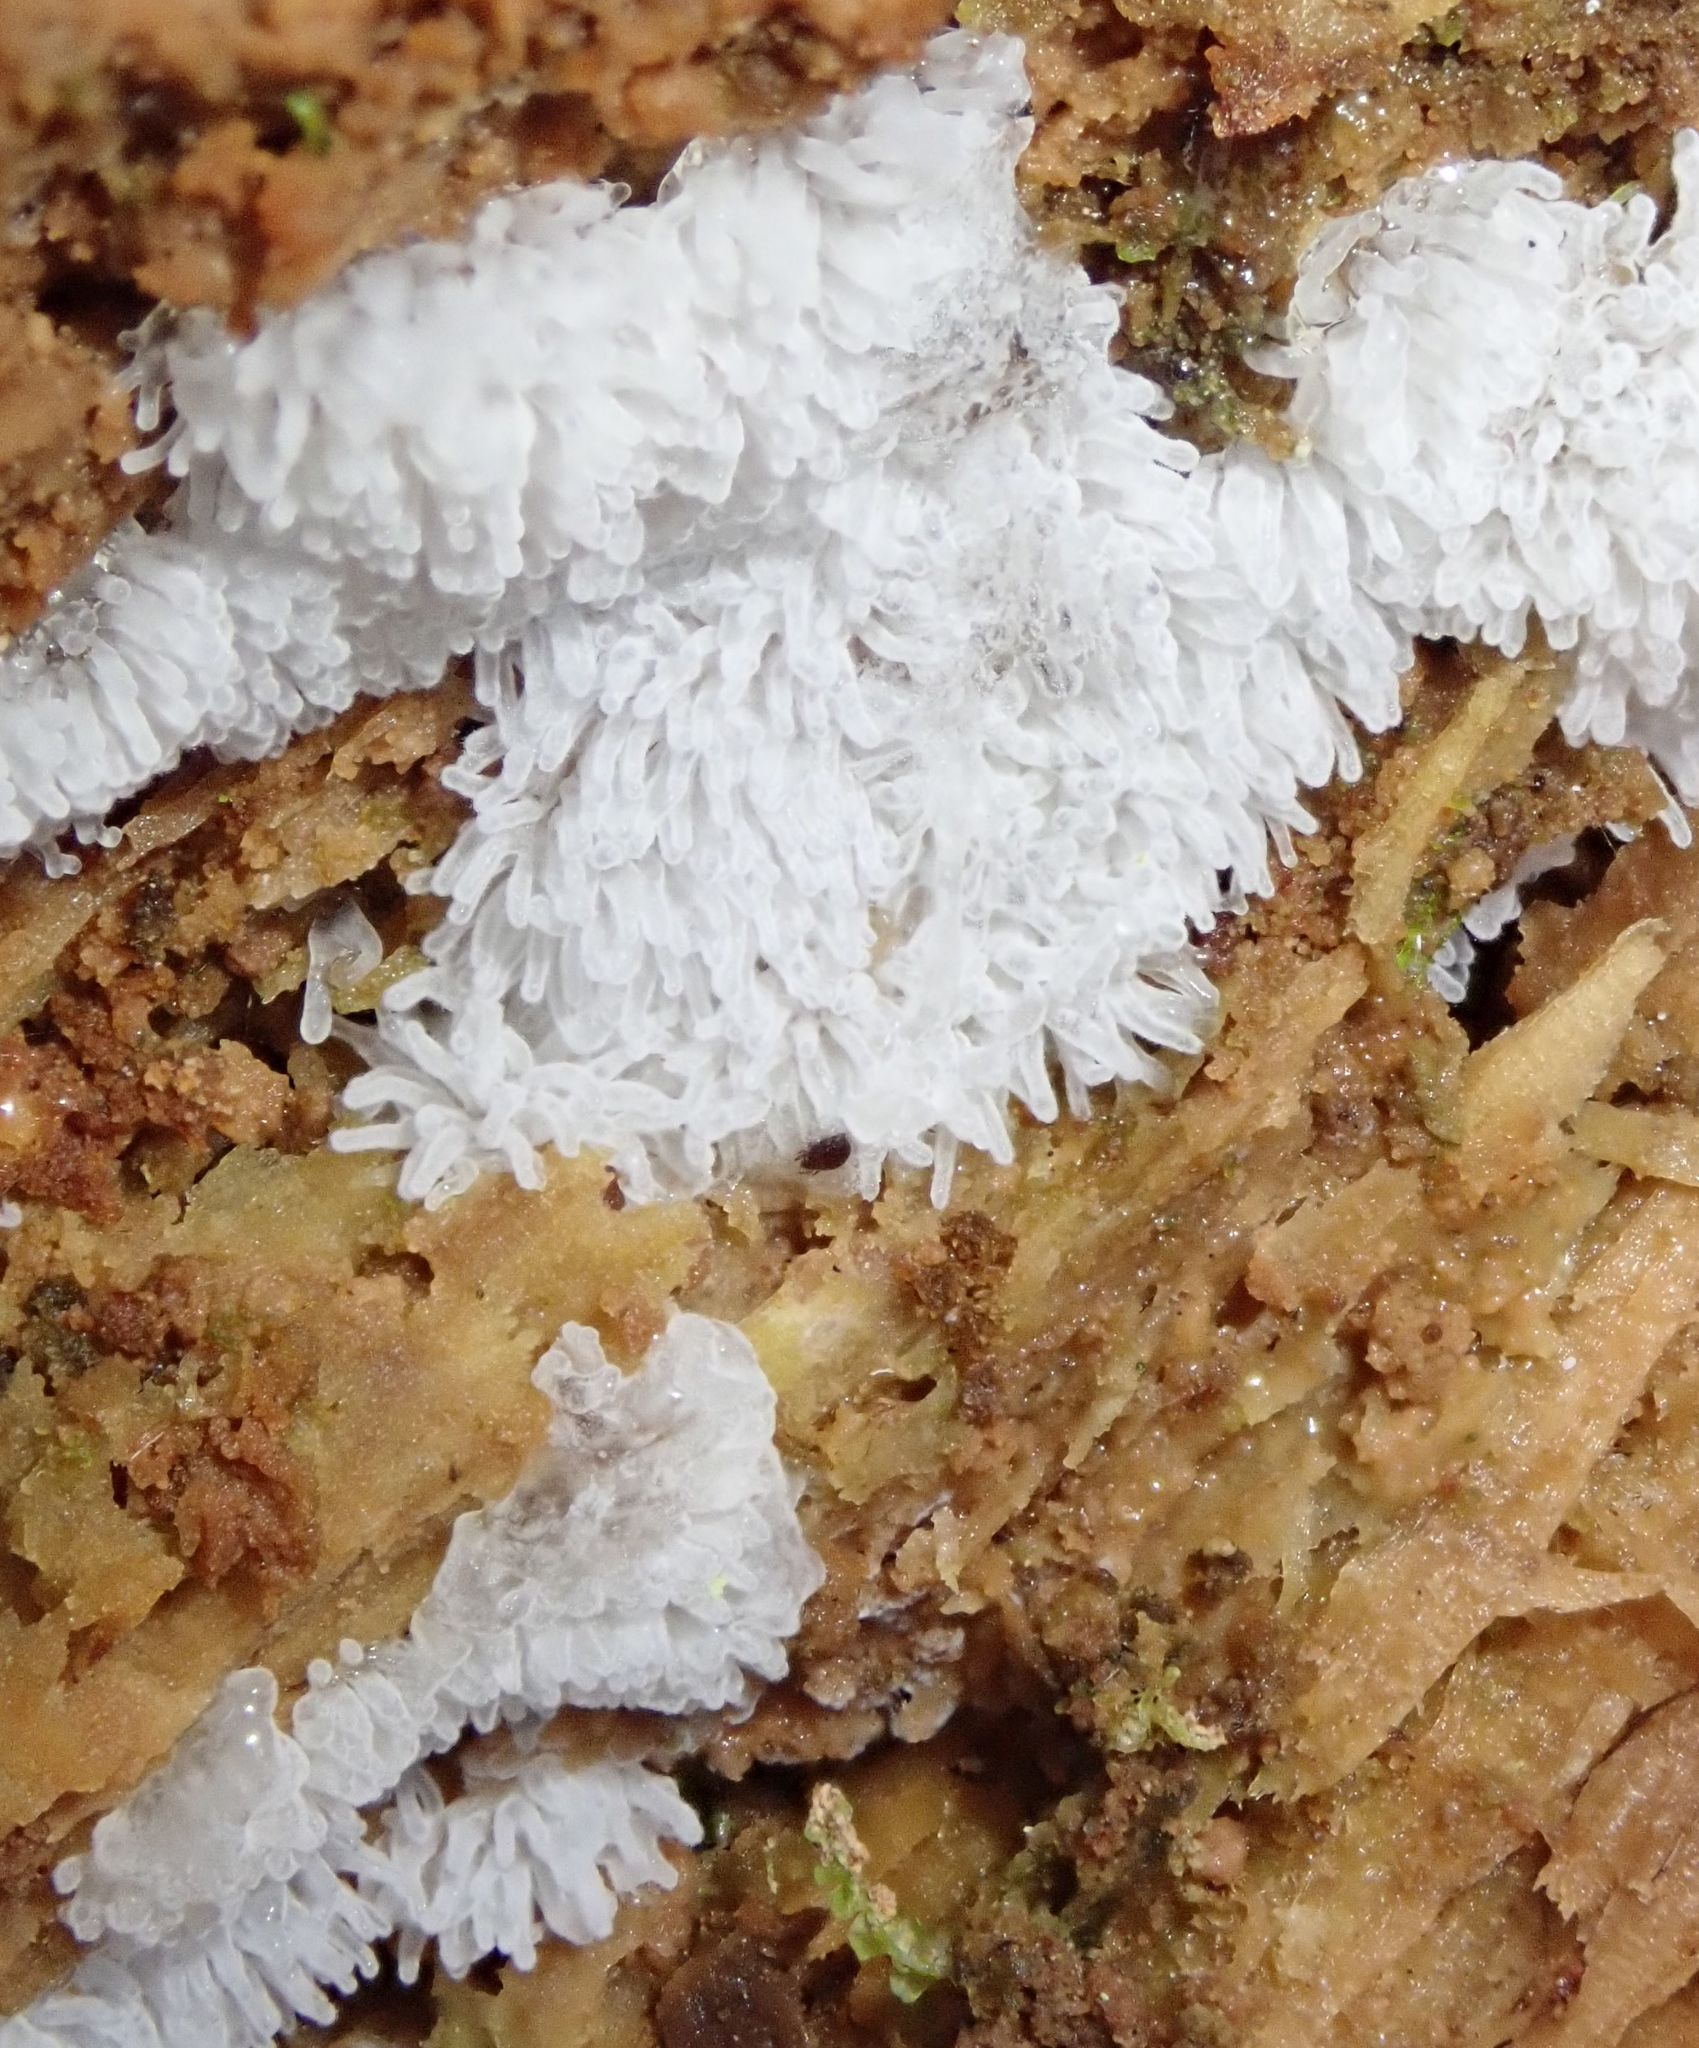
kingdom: Protozoa
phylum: Mycetozoa
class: Protosteliomycetes
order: Ceratiomyxales
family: Ceratiomyxaceae
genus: Ceratiomyxa
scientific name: Ceratiomyxa fruticulosa
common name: Honeycomb coral slime mold
